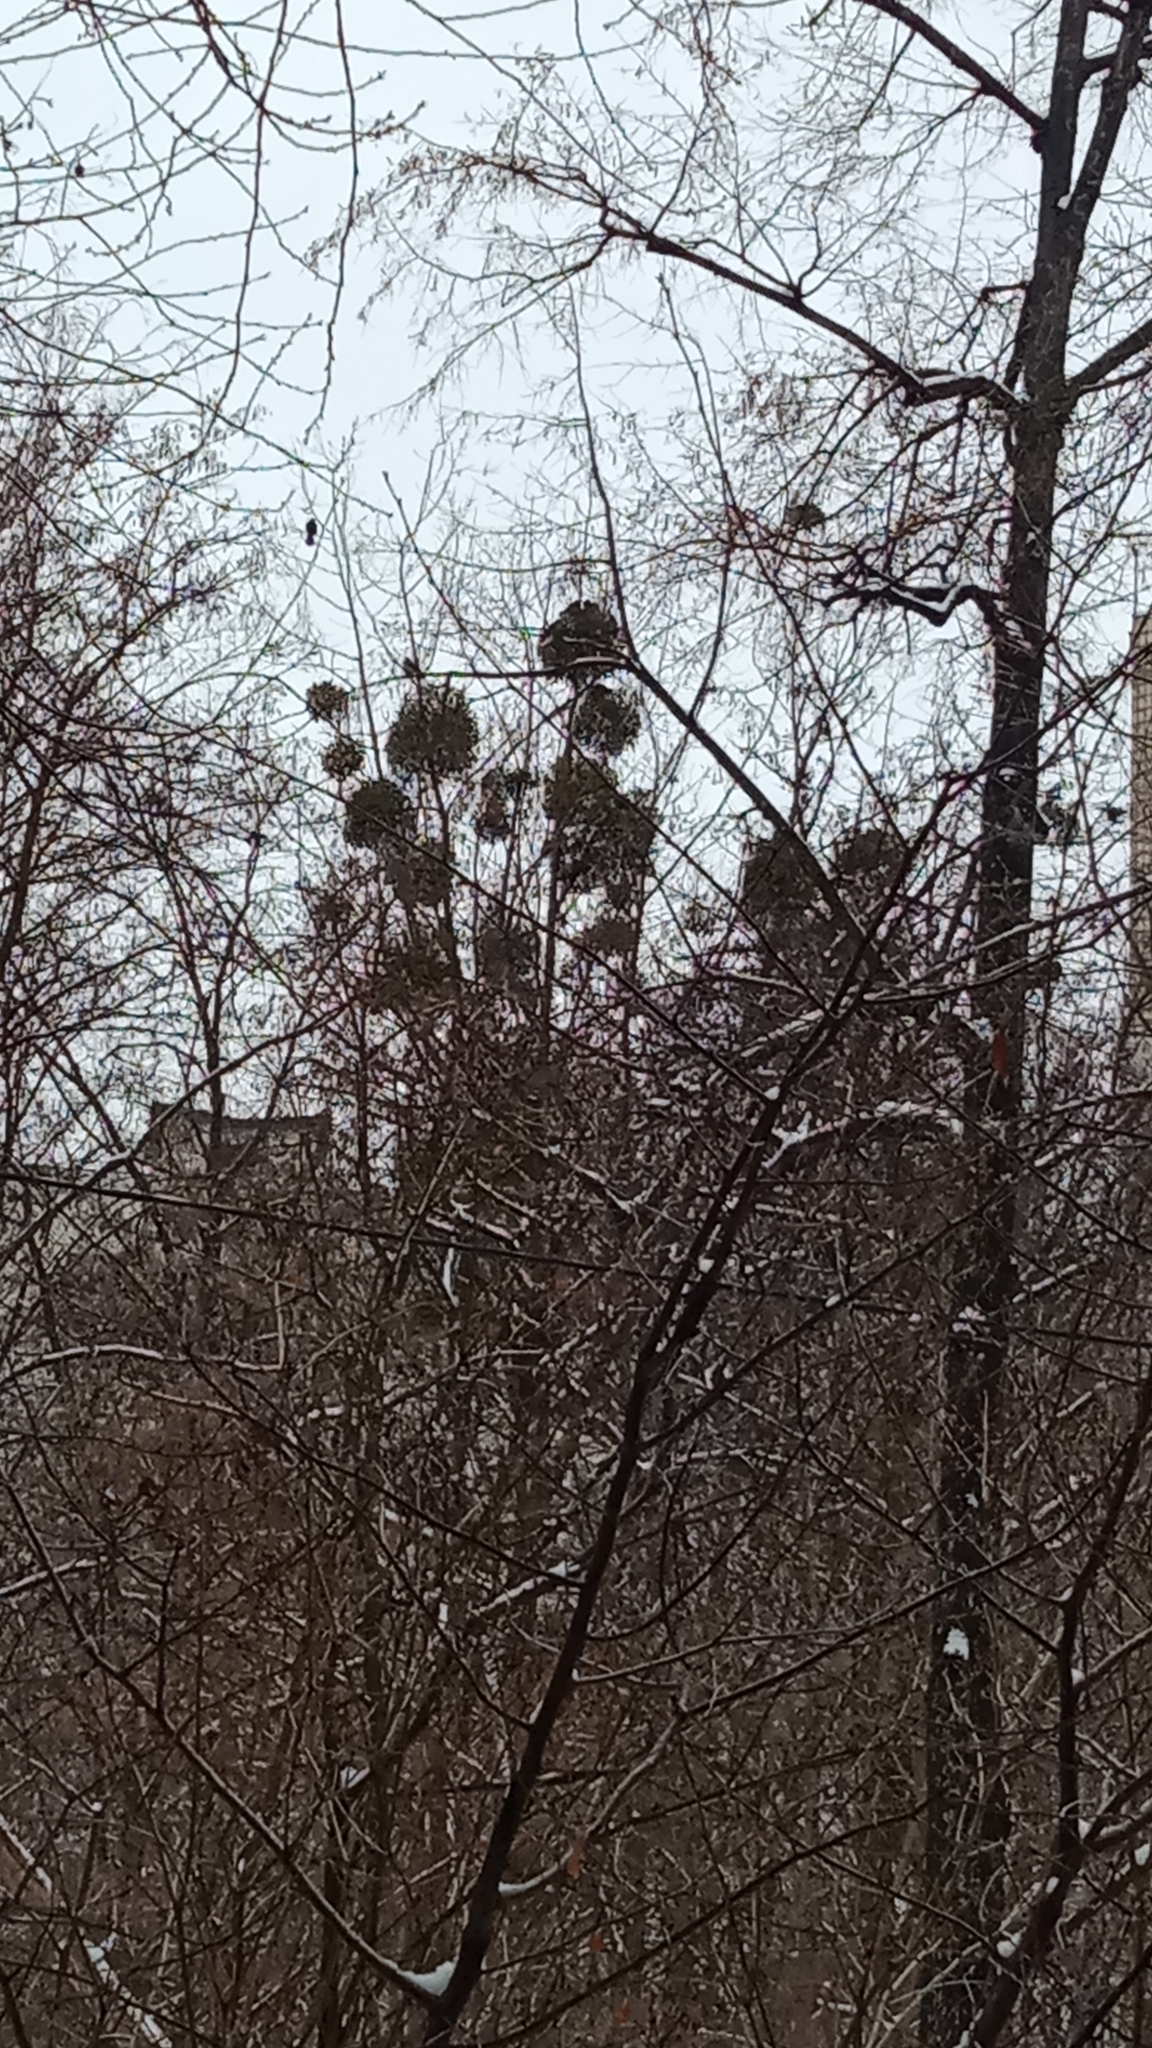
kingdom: Plantae
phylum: Tracheophyta
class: Magnoliopsida
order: Santalales
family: Viscaceae
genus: Viscum
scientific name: Viscum album
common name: Mistletoe
